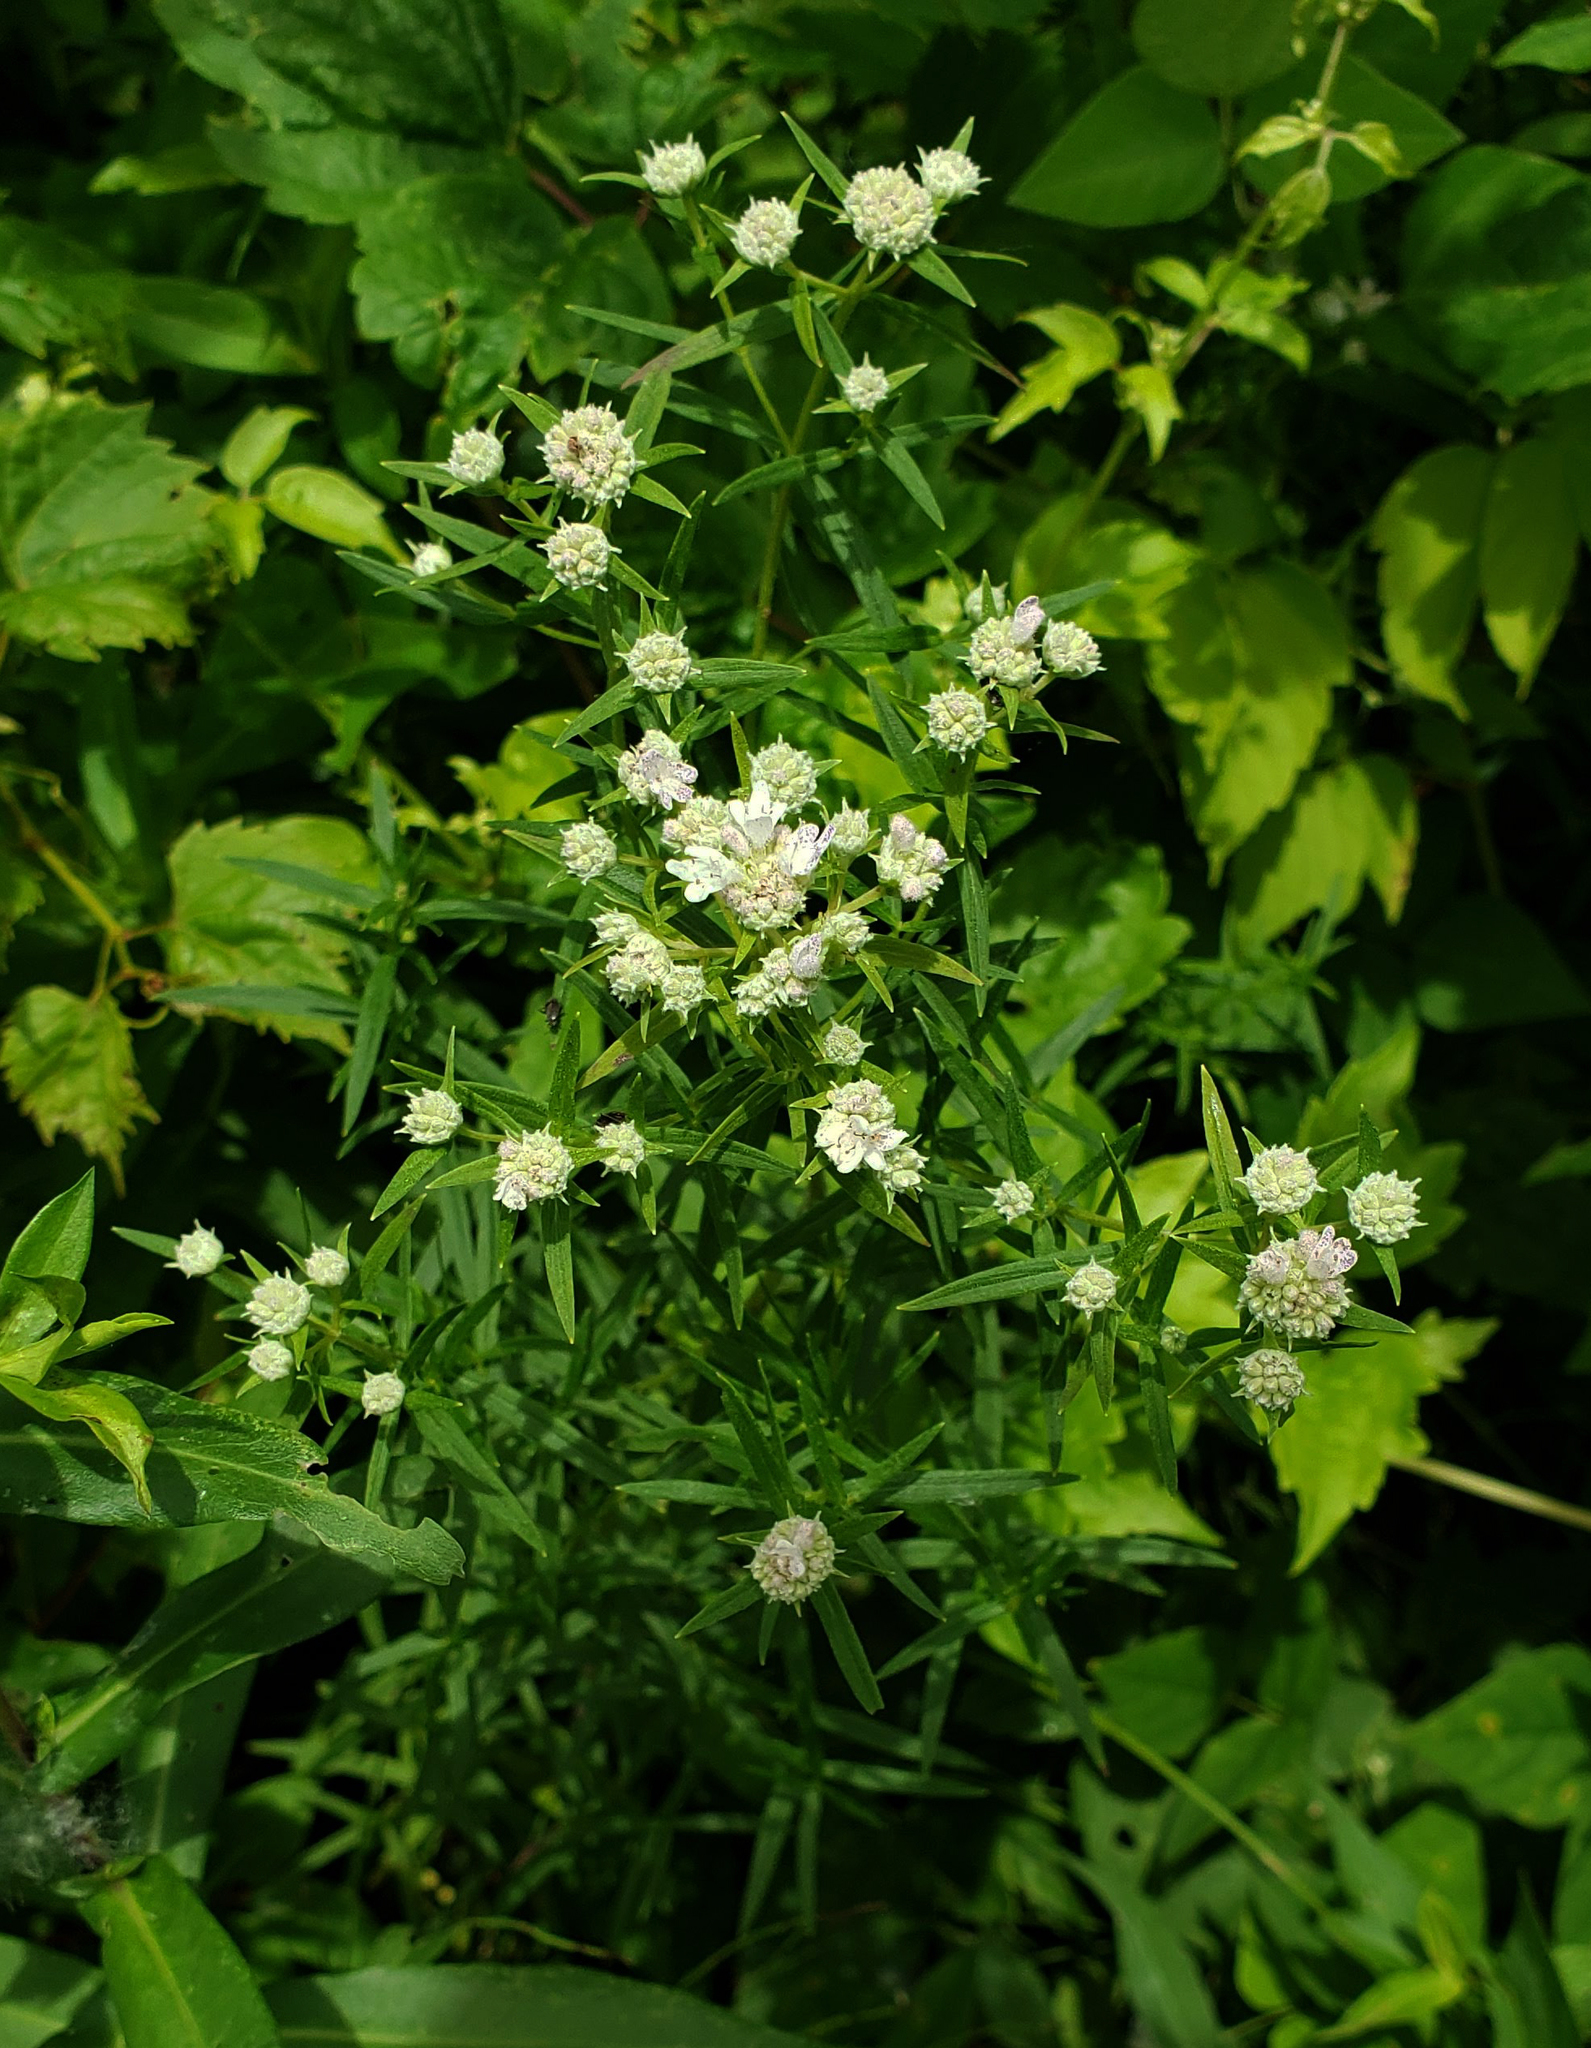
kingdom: Plantae
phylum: Tracheophyta
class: Magnoliopsida
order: Lamiales
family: Lamiaceae
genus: Pycnanthemum
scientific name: Pycnanthemum virginianum
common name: Virginia mountain-mint
